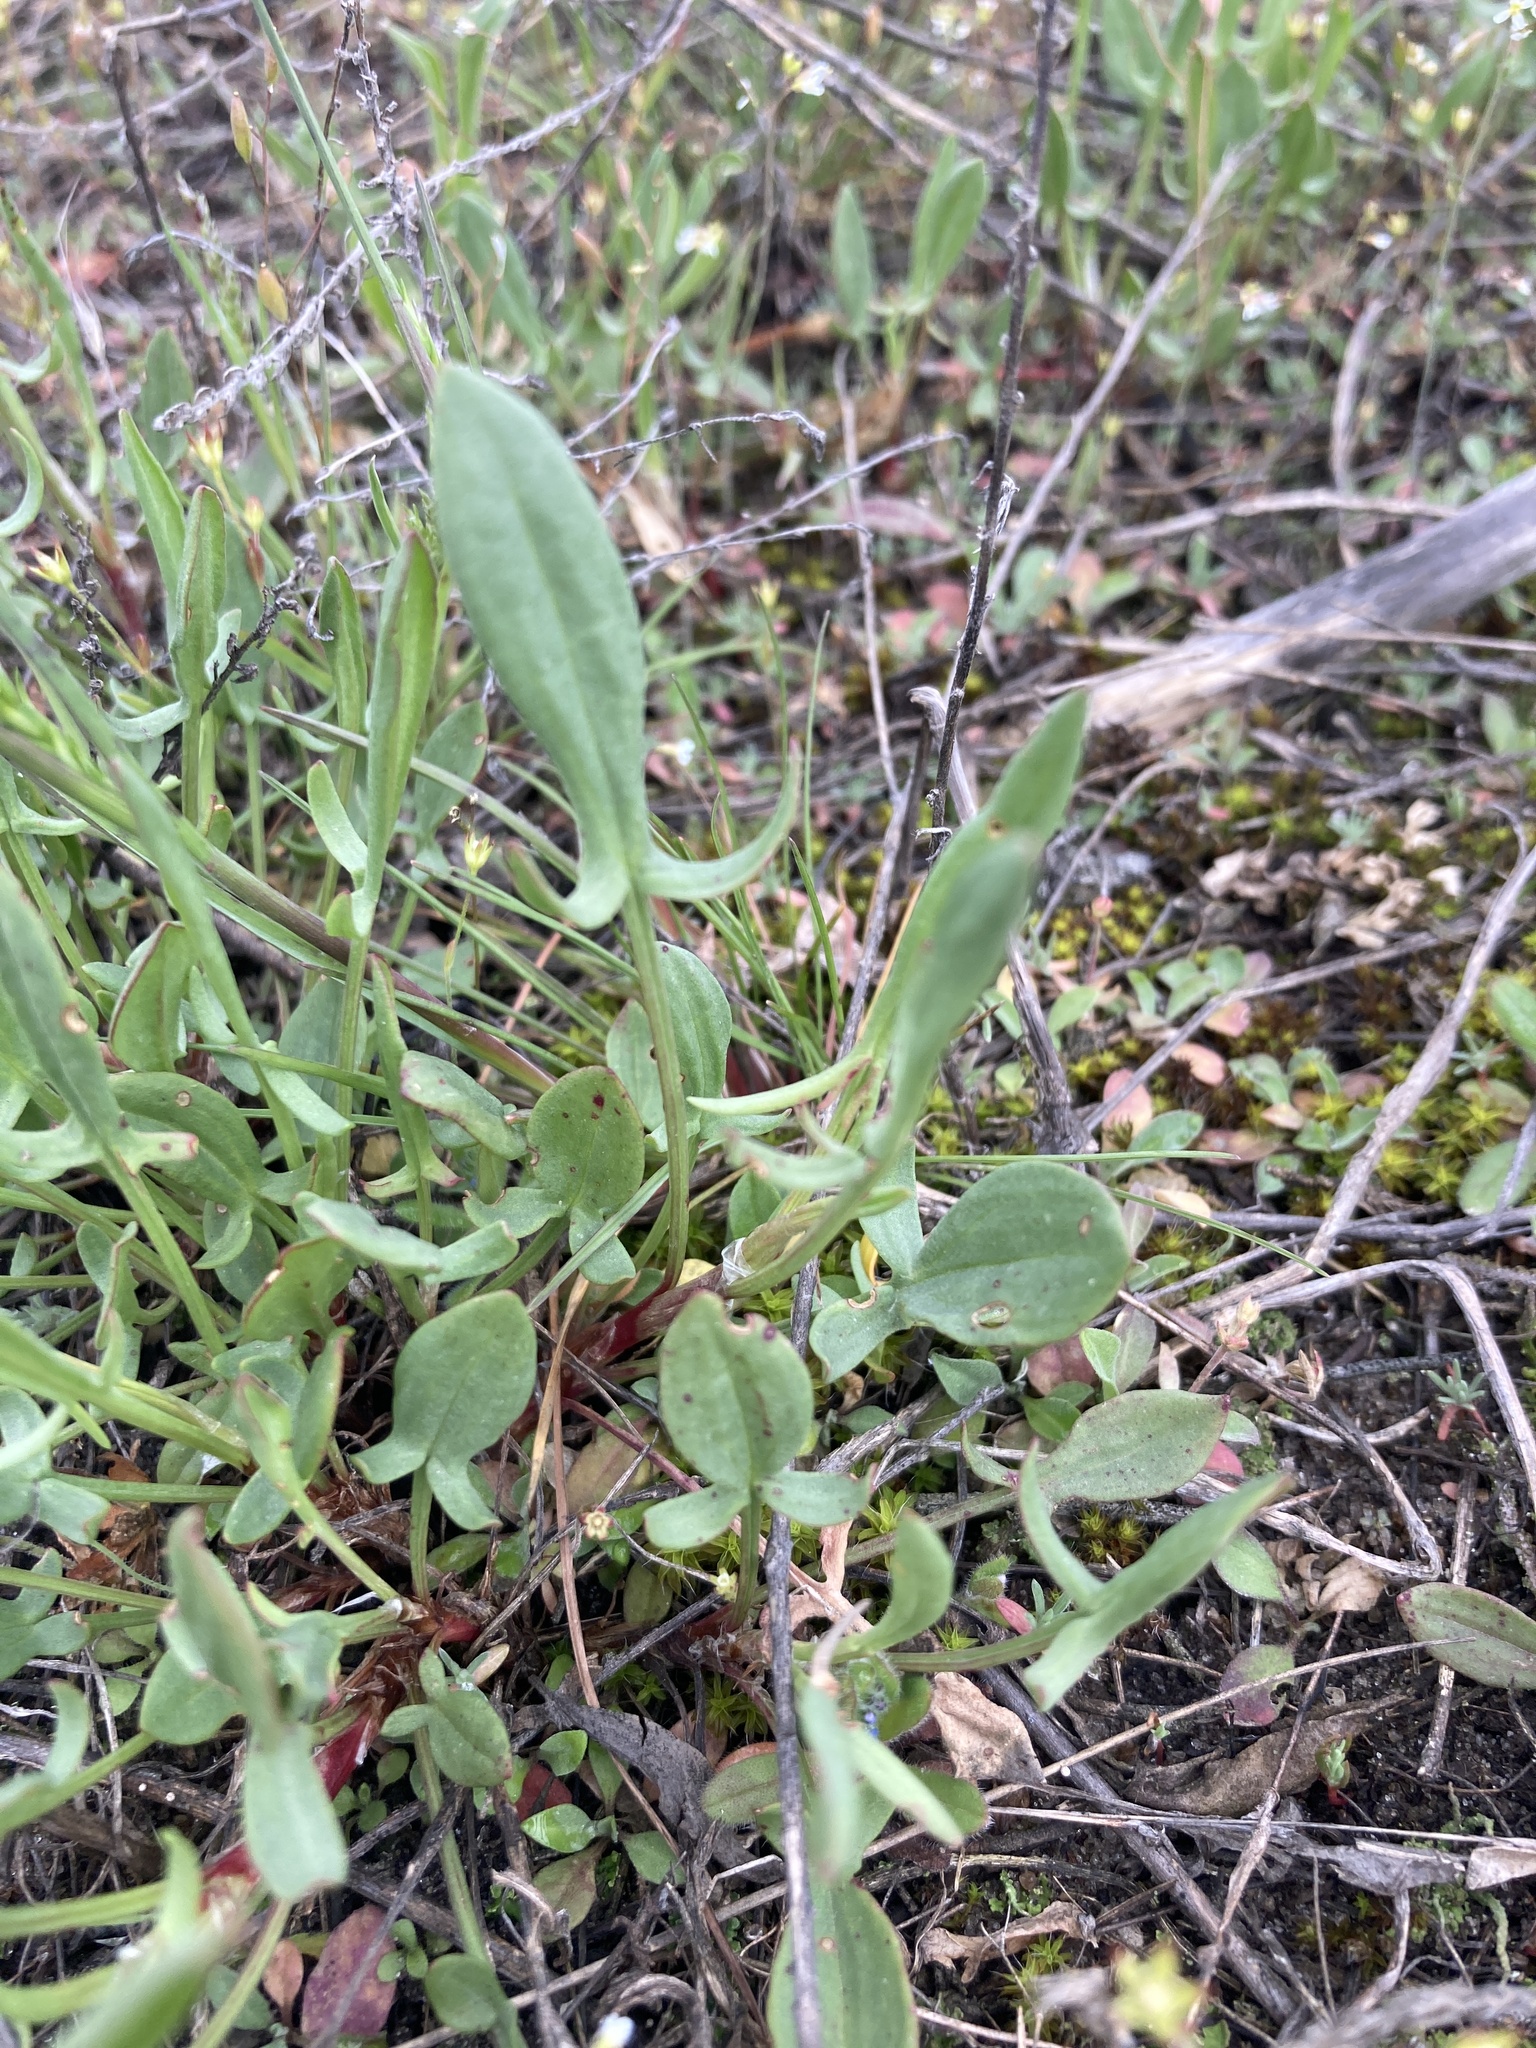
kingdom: Plantae
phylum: Tracheophyta
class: Magnoliopsida
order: Caryophyllales
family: Polygonaceae
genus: Rumex
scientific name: Rumex acetosella
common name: Common sheep sorrel
